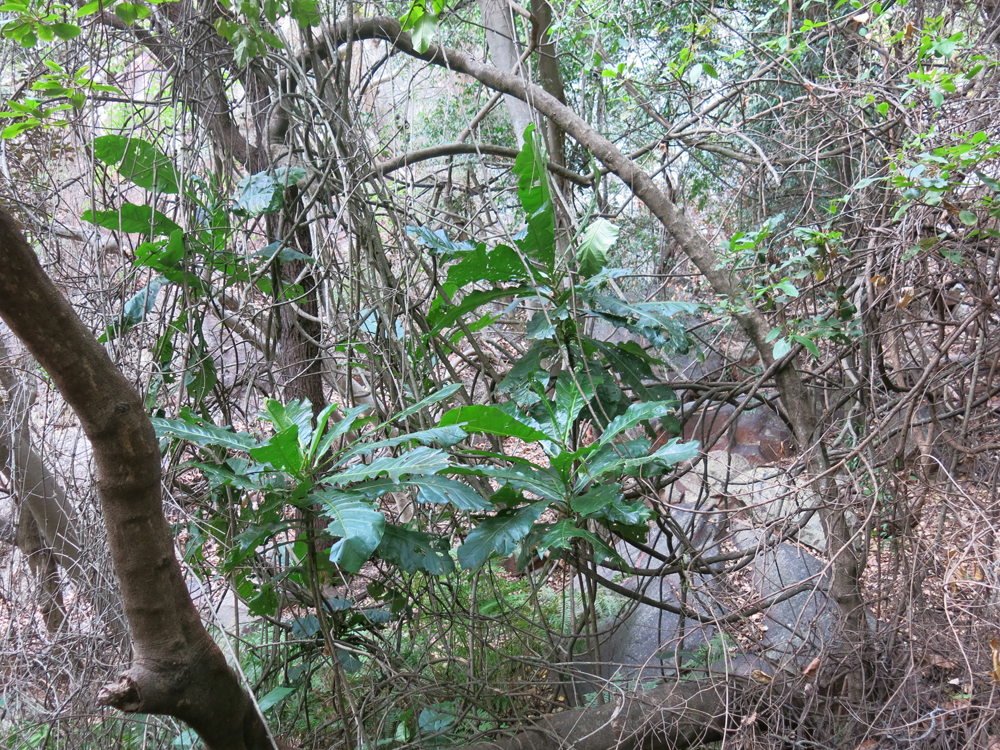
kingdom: Plantae
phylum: Tracheophyta
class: Magnoliopsida
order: Gentianales
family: Gentianaceae
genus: Anthocleista
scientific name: Anthocleista grandiflora
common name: Forest big-leaf
